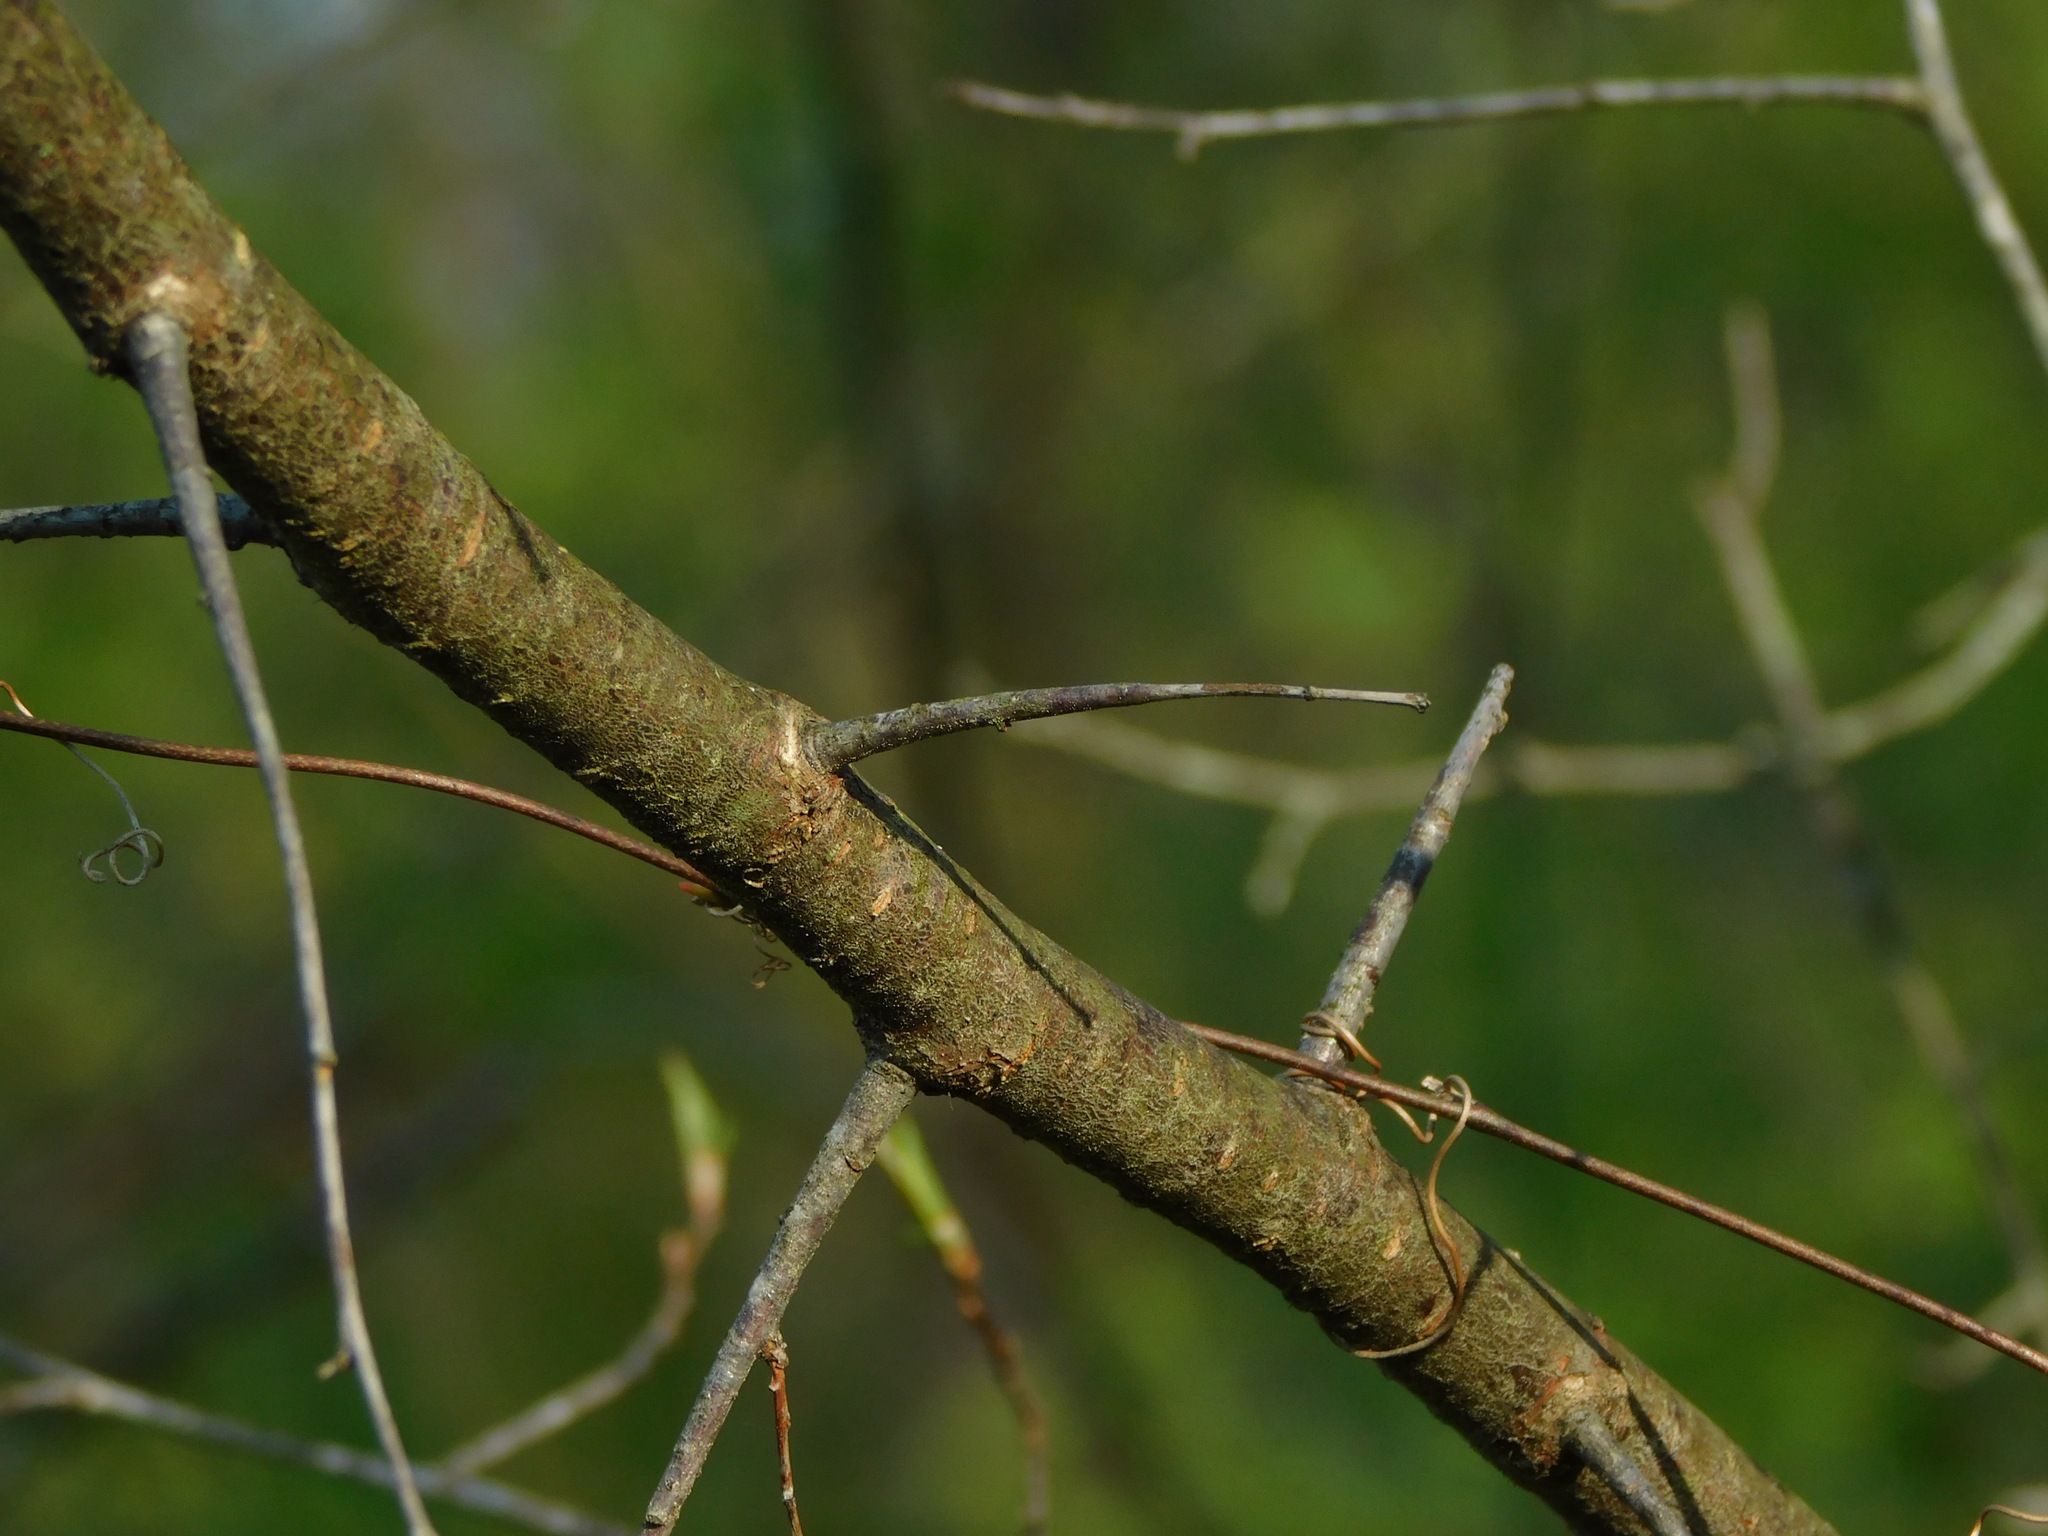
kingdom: Plantae
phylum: Tracheophyta
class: Magnoliopsida
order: Rosales
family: Rosaceae
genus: Prunus
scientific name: Prunus munsoniana
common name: Creek plum
